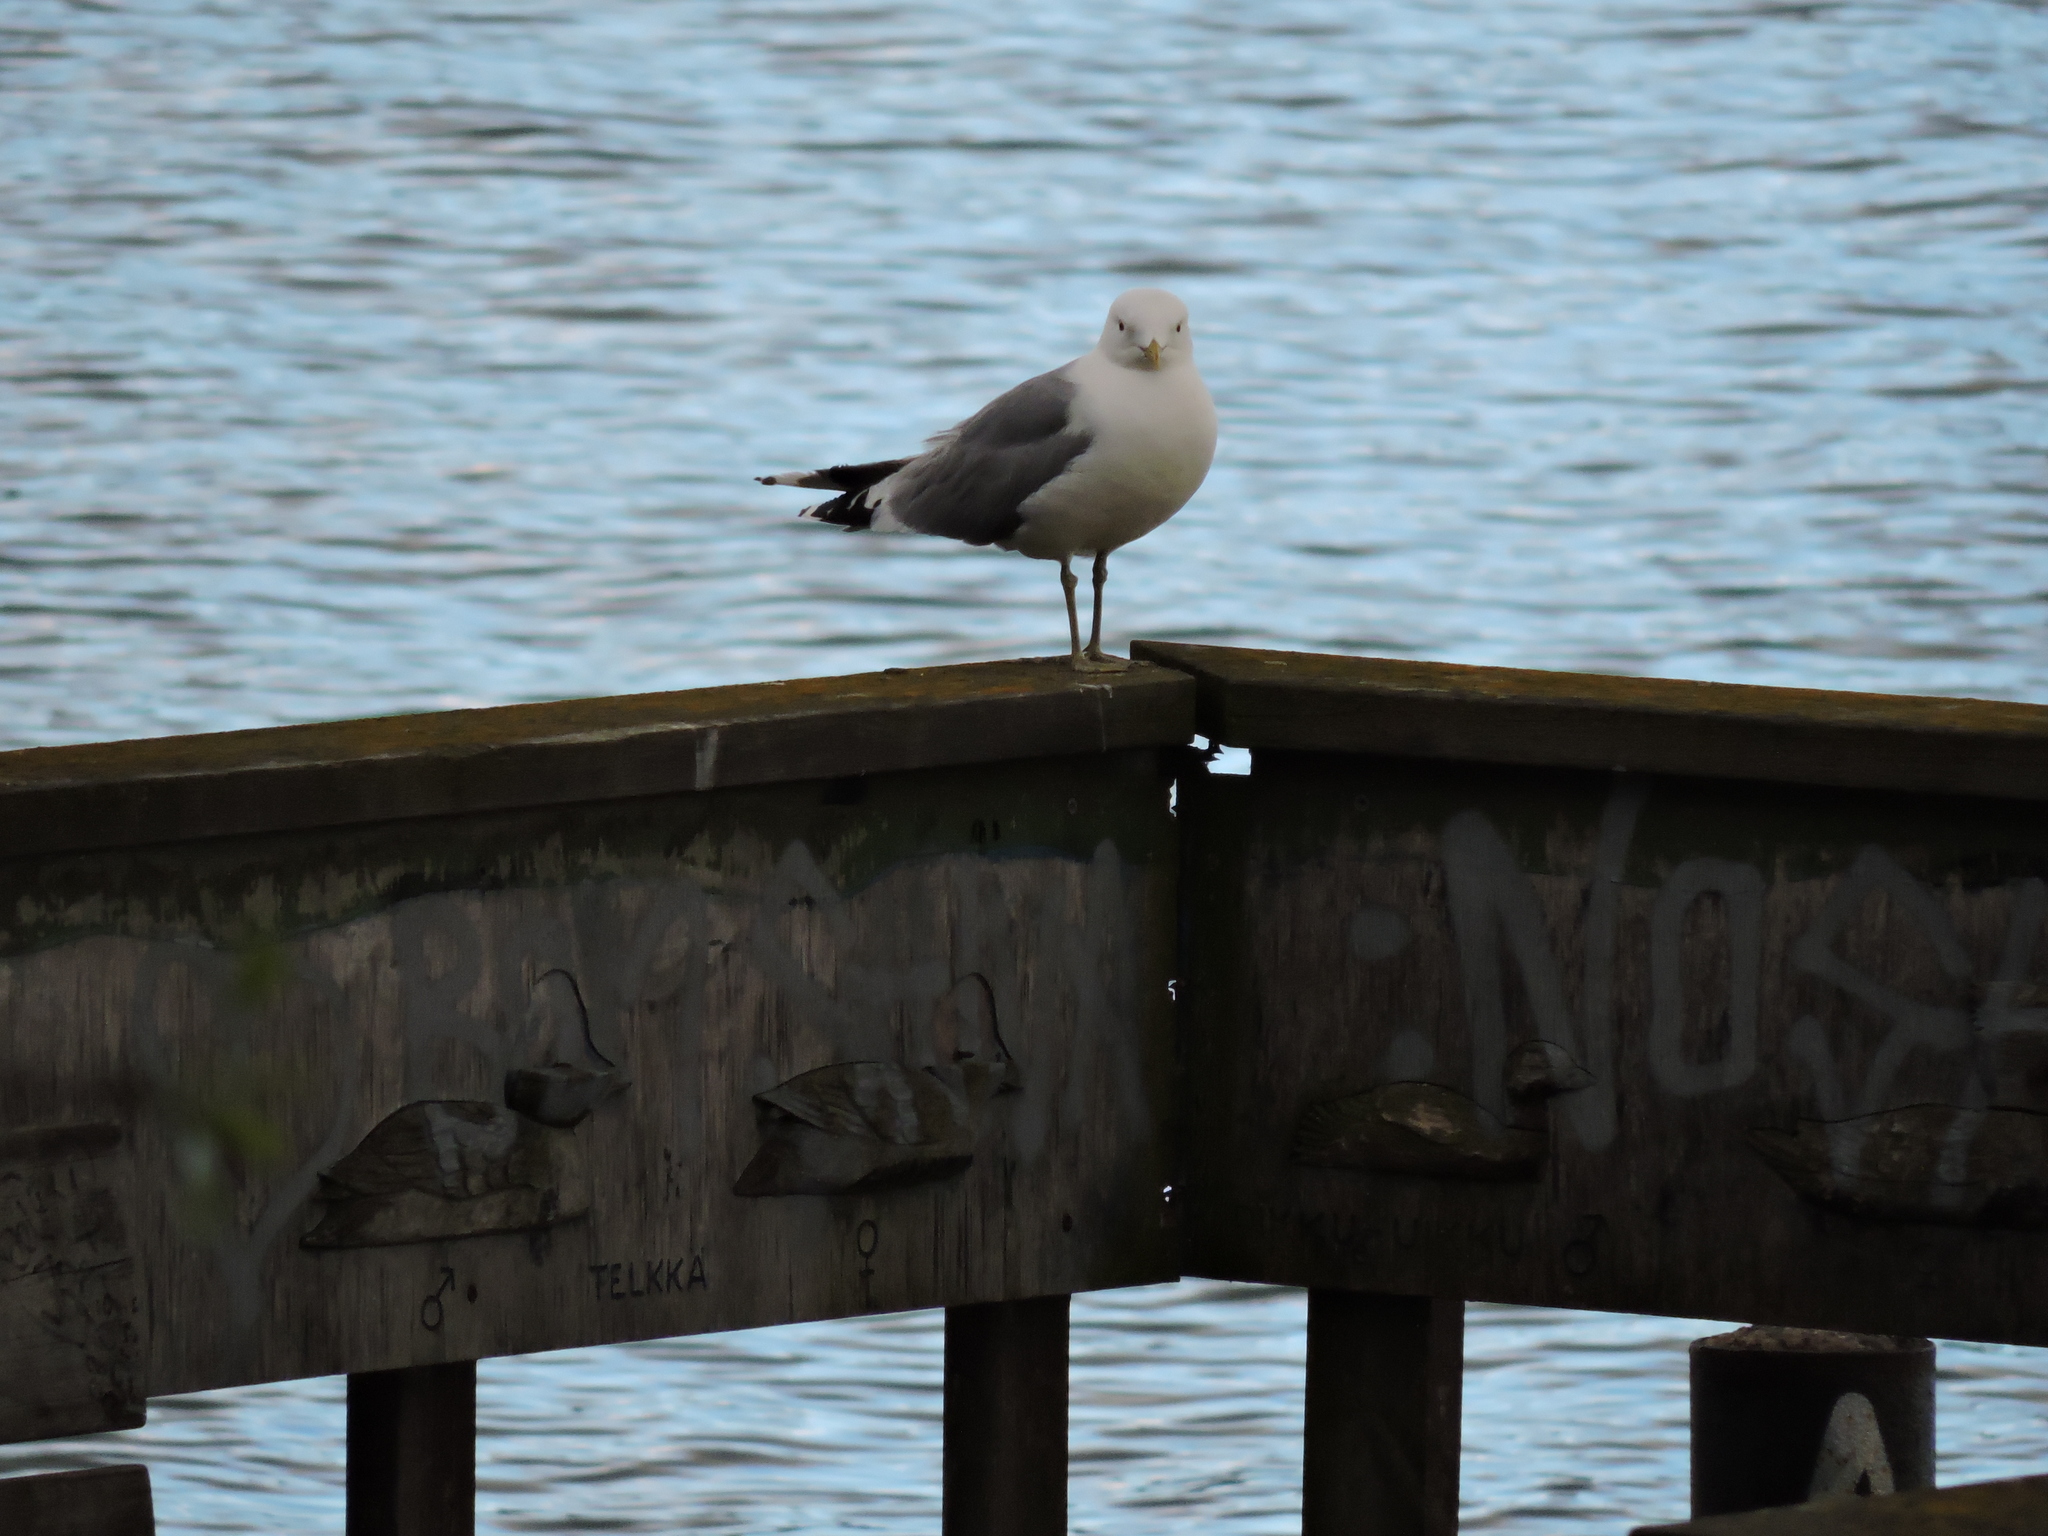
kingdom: Animalia
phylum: Chordata
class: Aves
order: Charadriiformes
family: Laridae
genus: Larus
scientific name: Larus canus
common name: Mew gull
